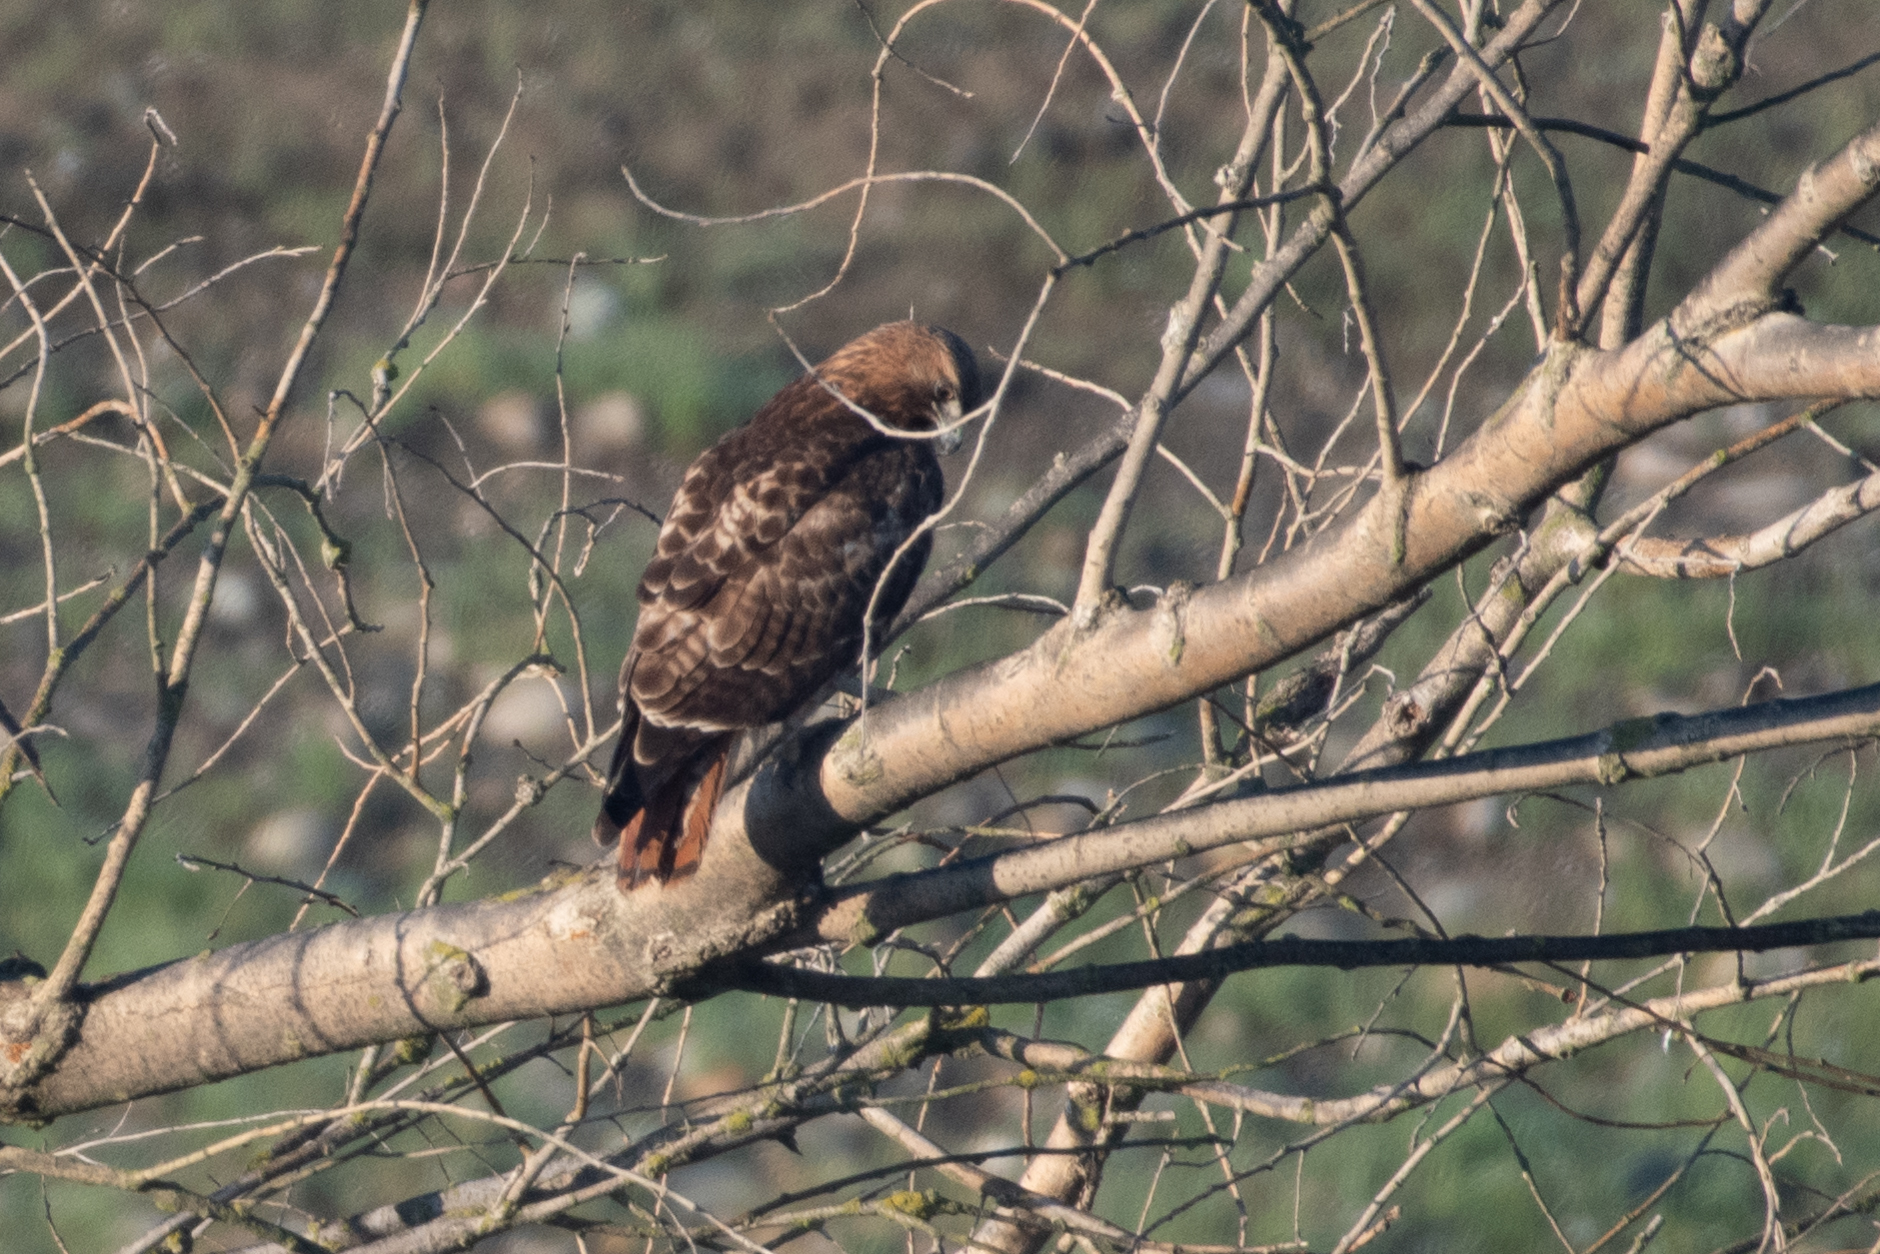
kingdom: Animalia
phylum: Chordata
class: Aves
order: Accipitriformes
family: Accipitridae
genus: Buteo
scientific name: Buteo jamaicensis
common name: Red-tailed hawk
